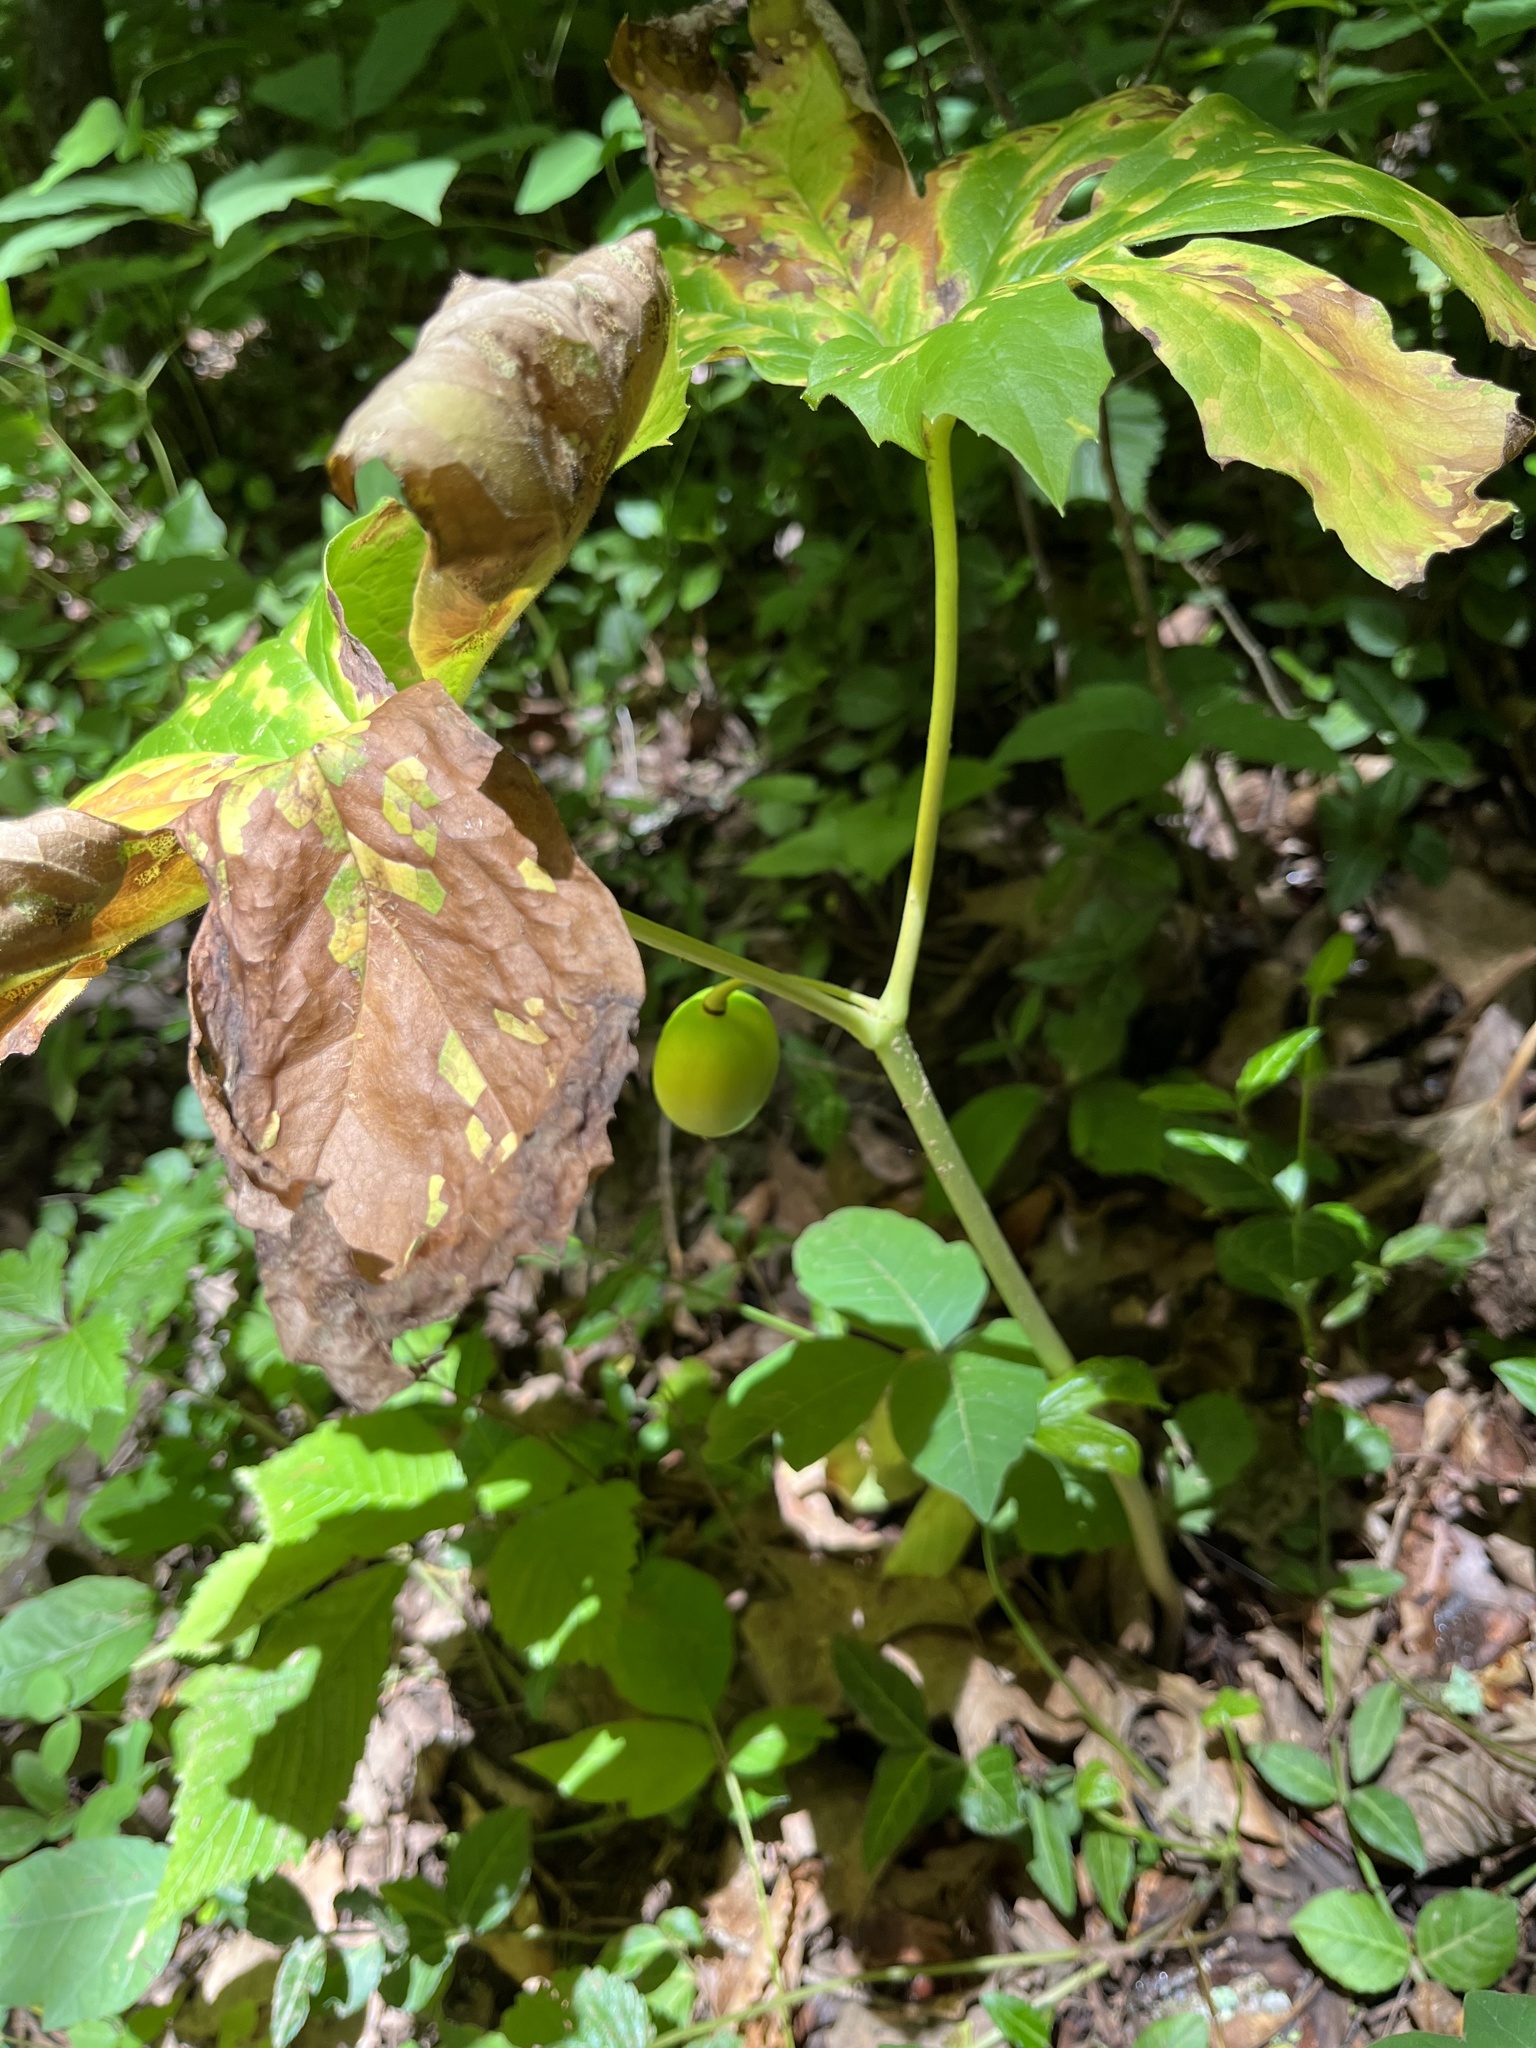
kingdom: Plantae
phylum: Tracheophyta
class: Magnoliopsida
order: Ranunculales
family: Berberidaceae
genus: Podophyllum
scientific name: Podophyllum peltatum
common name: Wild mandrake
